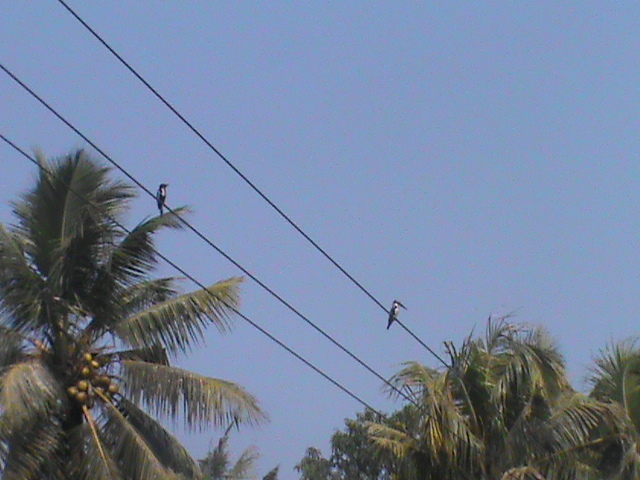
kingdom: Animalia
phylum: Chordata
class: Aves
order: Coraciiformes
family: Alcedinidae
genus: Halcyon
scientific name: Halcyon smyrnensis
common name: White-throated kingfisher
